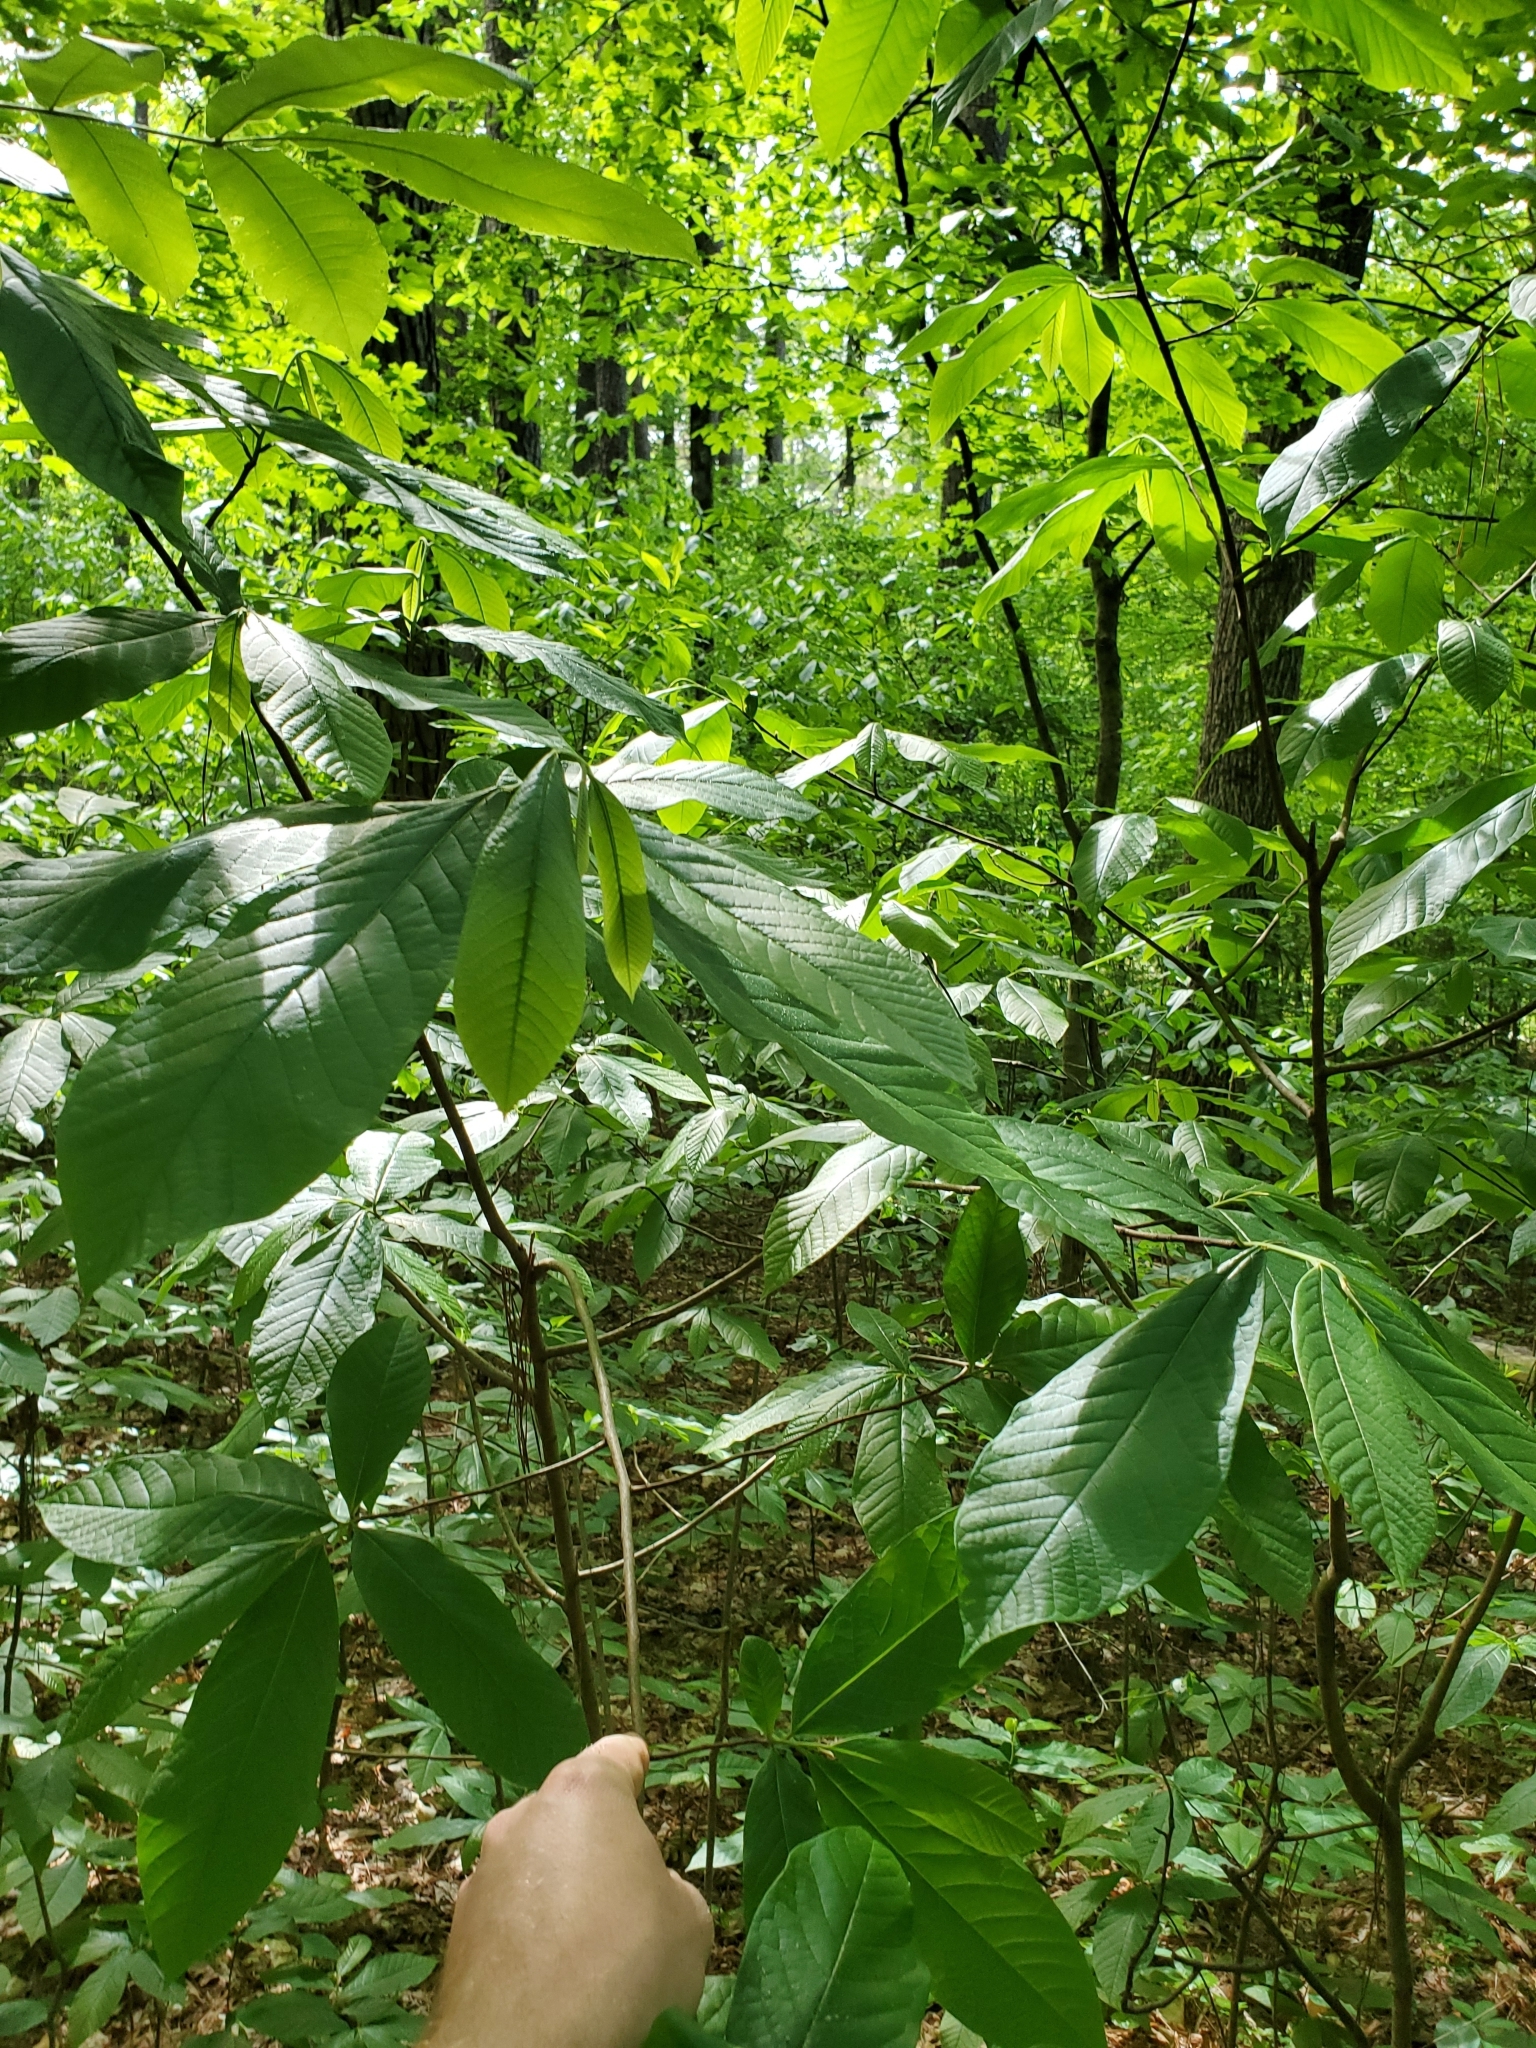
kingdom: Plantae
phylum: Tracheophyta
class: Magnoliopsida
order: Magnoliales
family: Annonaceae
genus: Asimina
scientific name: Asimina triloba
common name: Dog-banana
